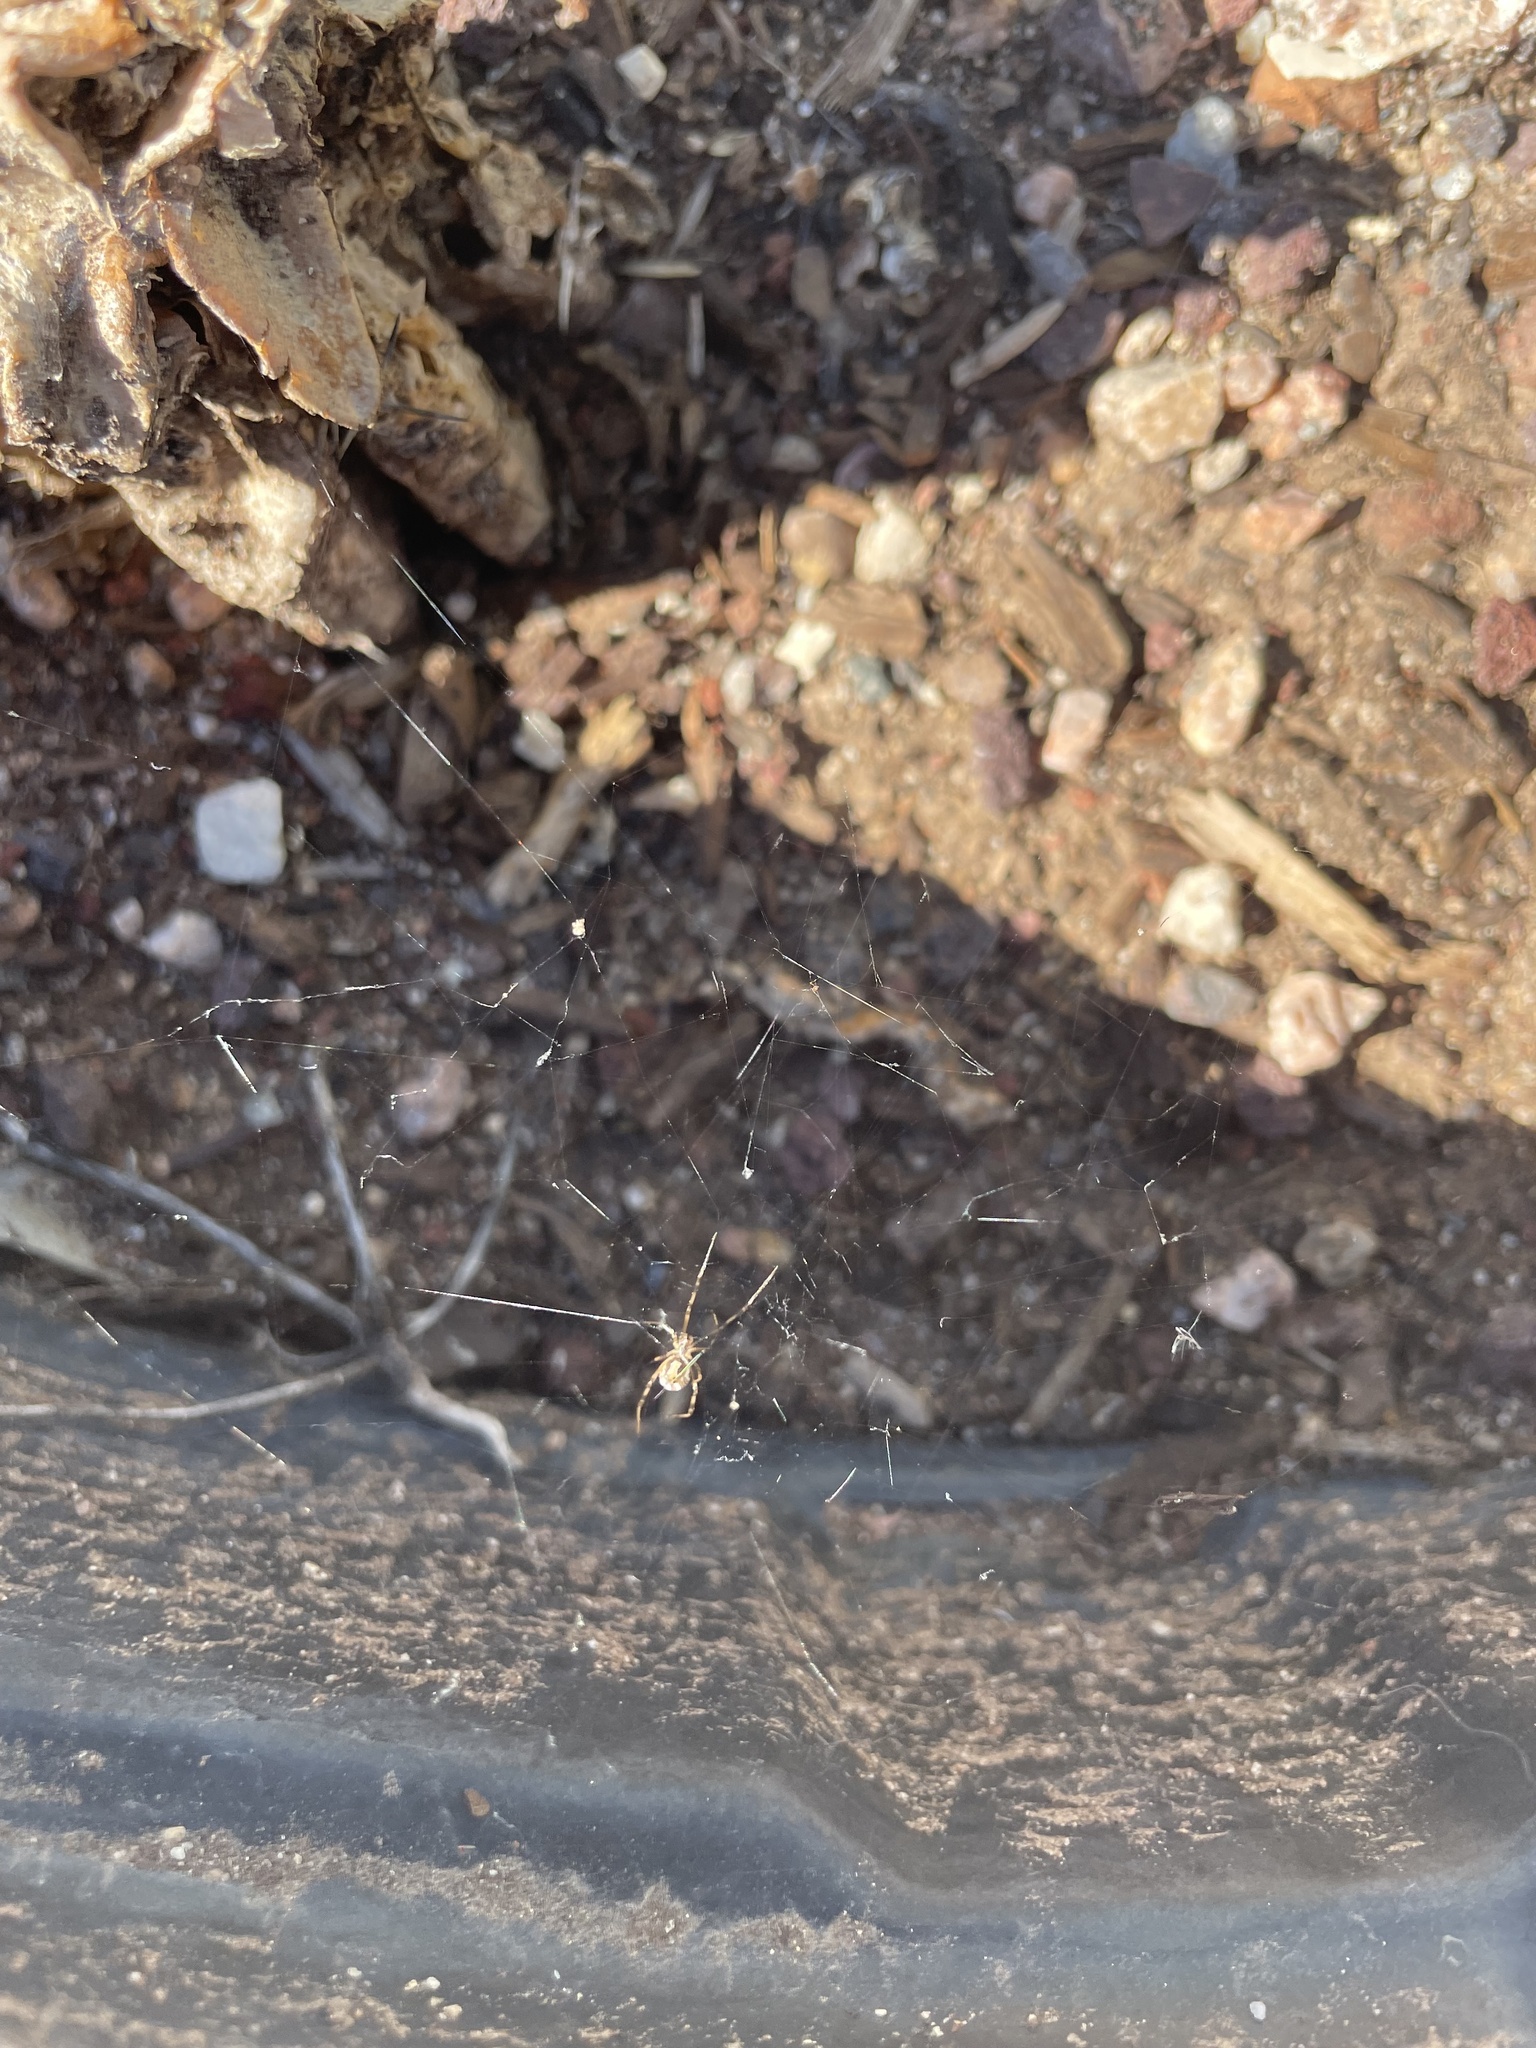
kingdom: Animalia
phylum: Arthropoda
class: Arachnida
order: Araneae
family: Theridiidae
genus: Latrodectus
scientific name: Latrodectus hesperus
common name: Western black widow
